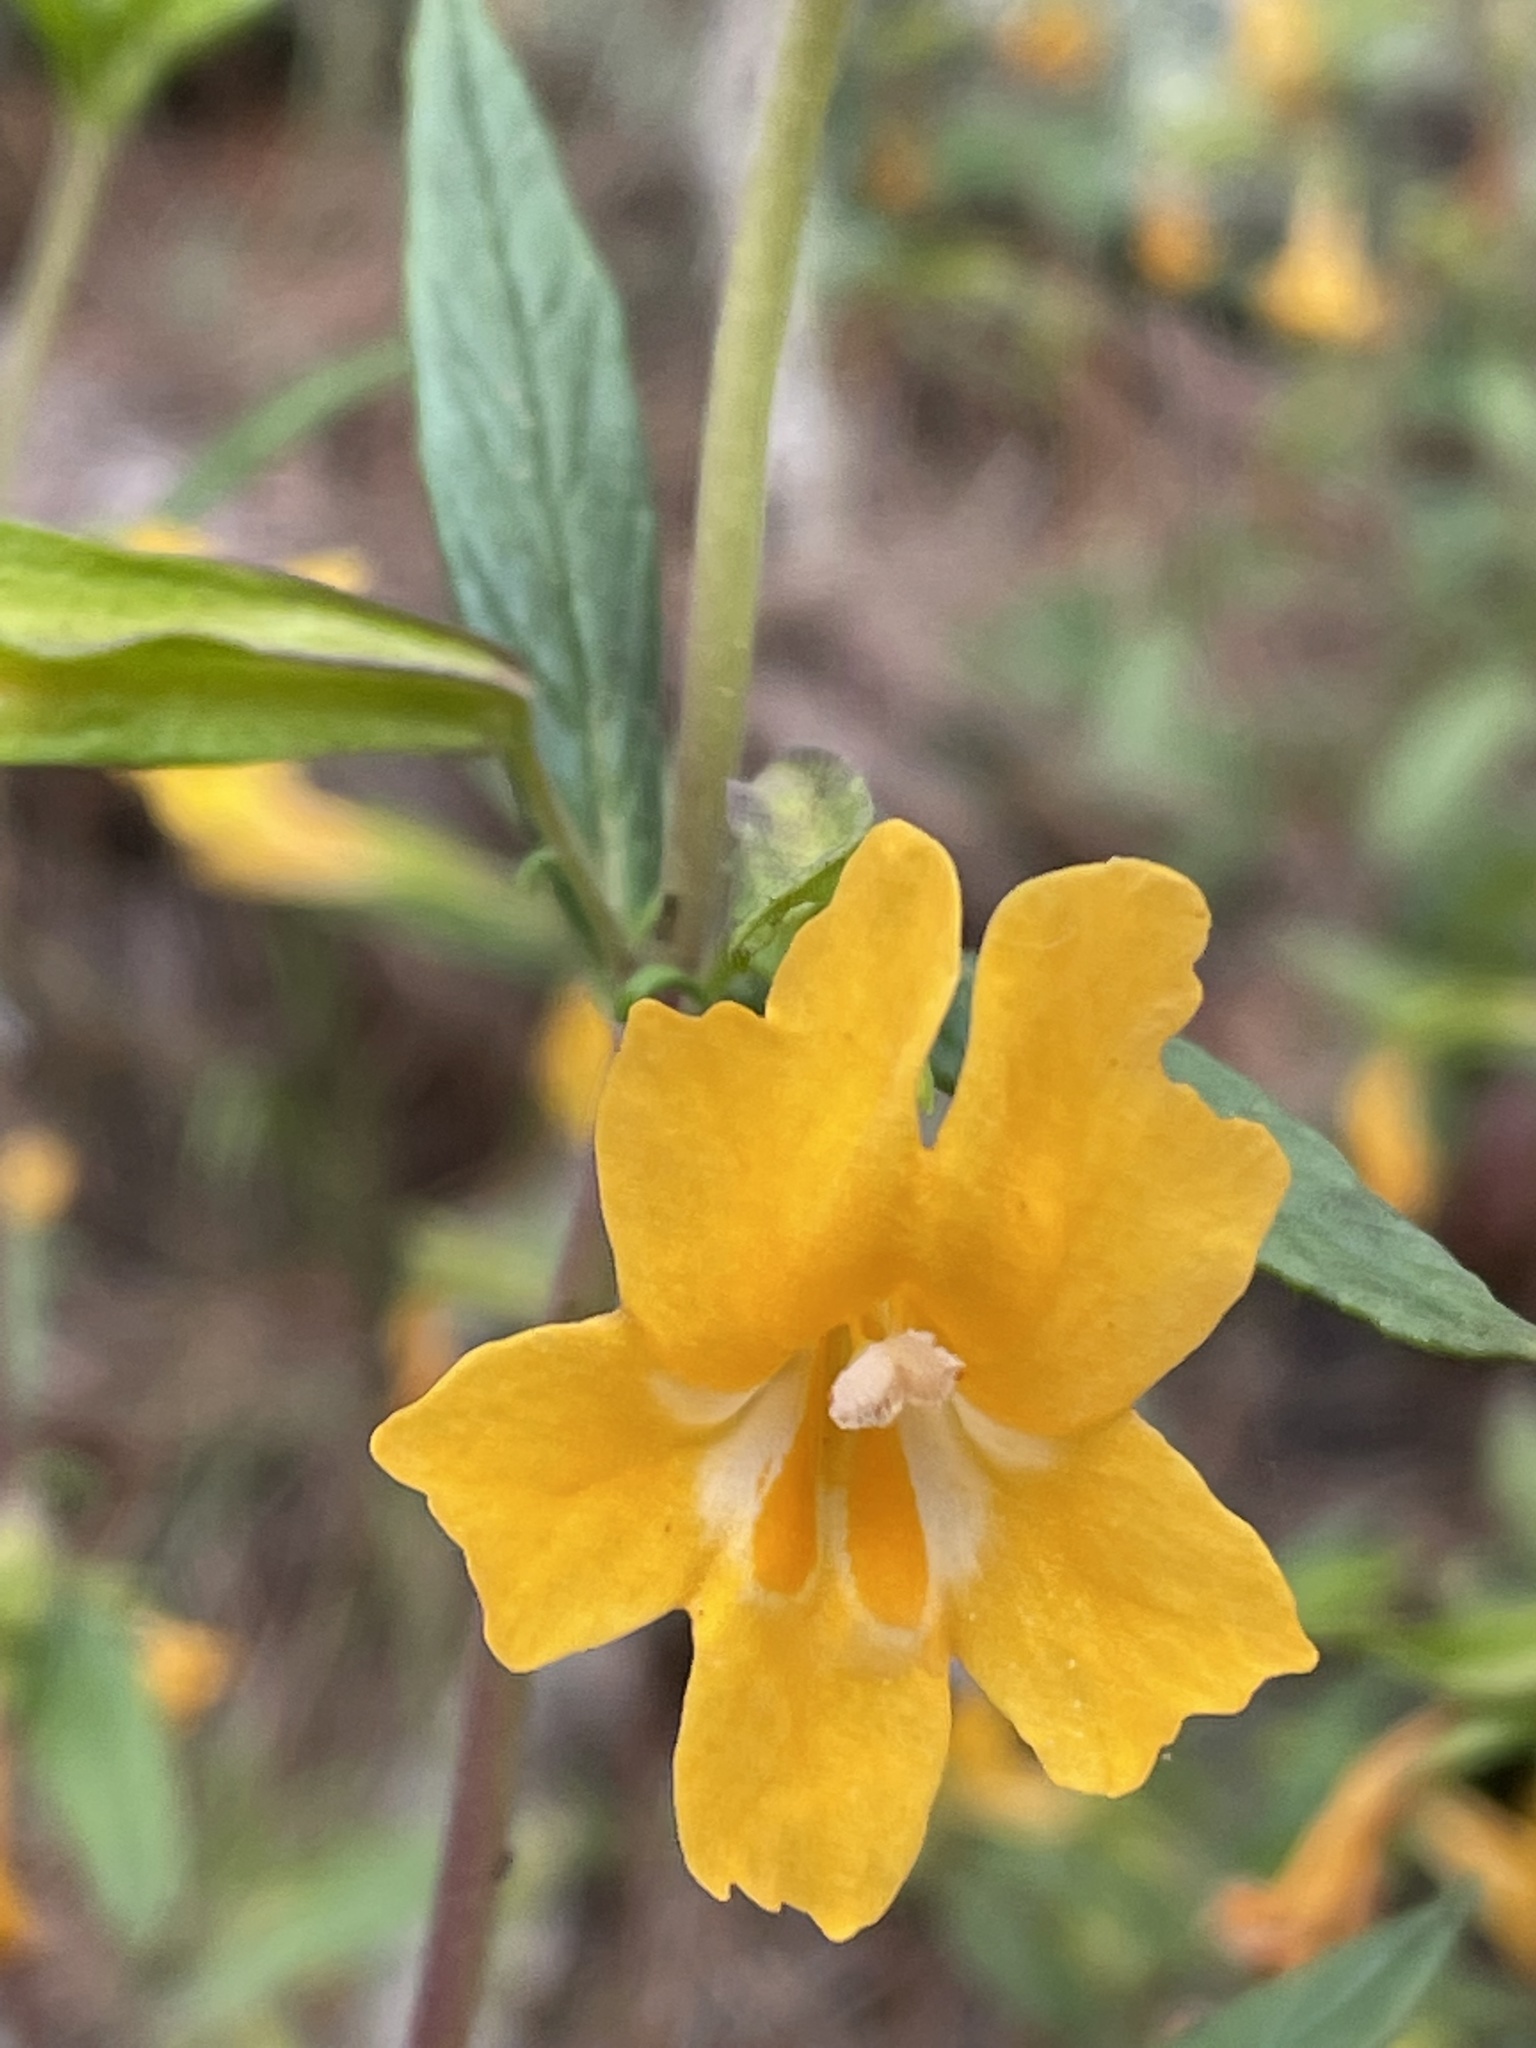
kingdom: Plantae
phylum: Tracheophyta
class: Magnoliopsida
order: Lamiales
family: Phrymaceae
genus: Diplacus
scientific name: Diplacus aurantiacus
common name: Bush monkey-flower
